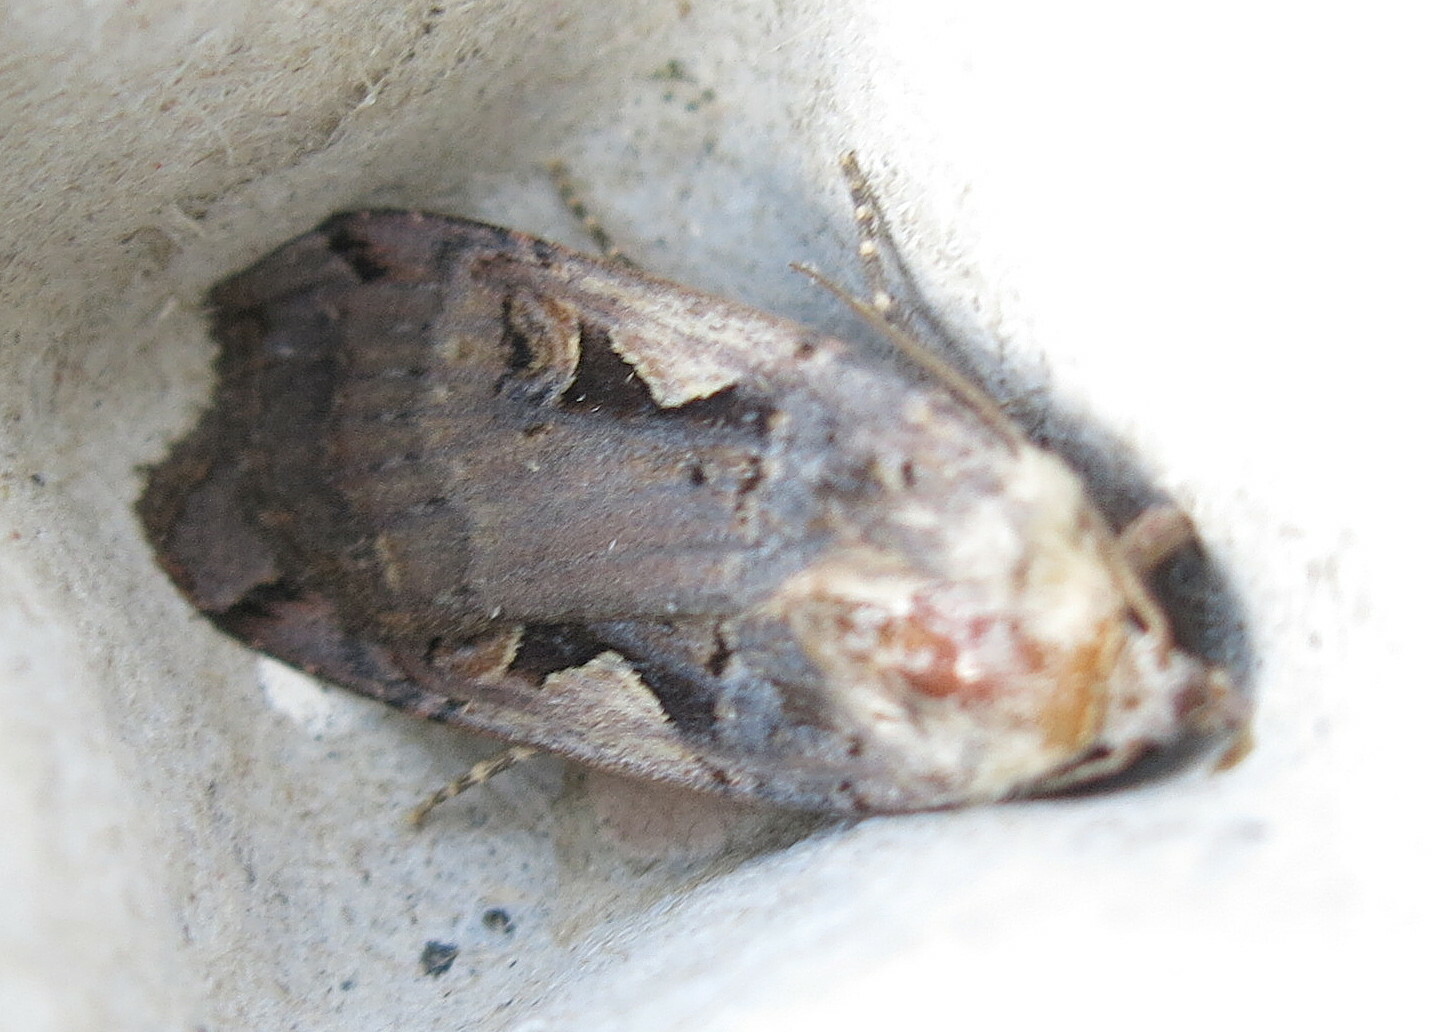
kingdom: Animalia
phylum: Arthropoda
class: Insecta
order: Lepidoptera
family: Noctuidae
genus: Xestia
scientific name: Xestia c-nigrum
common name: Setaceous hebrew character
